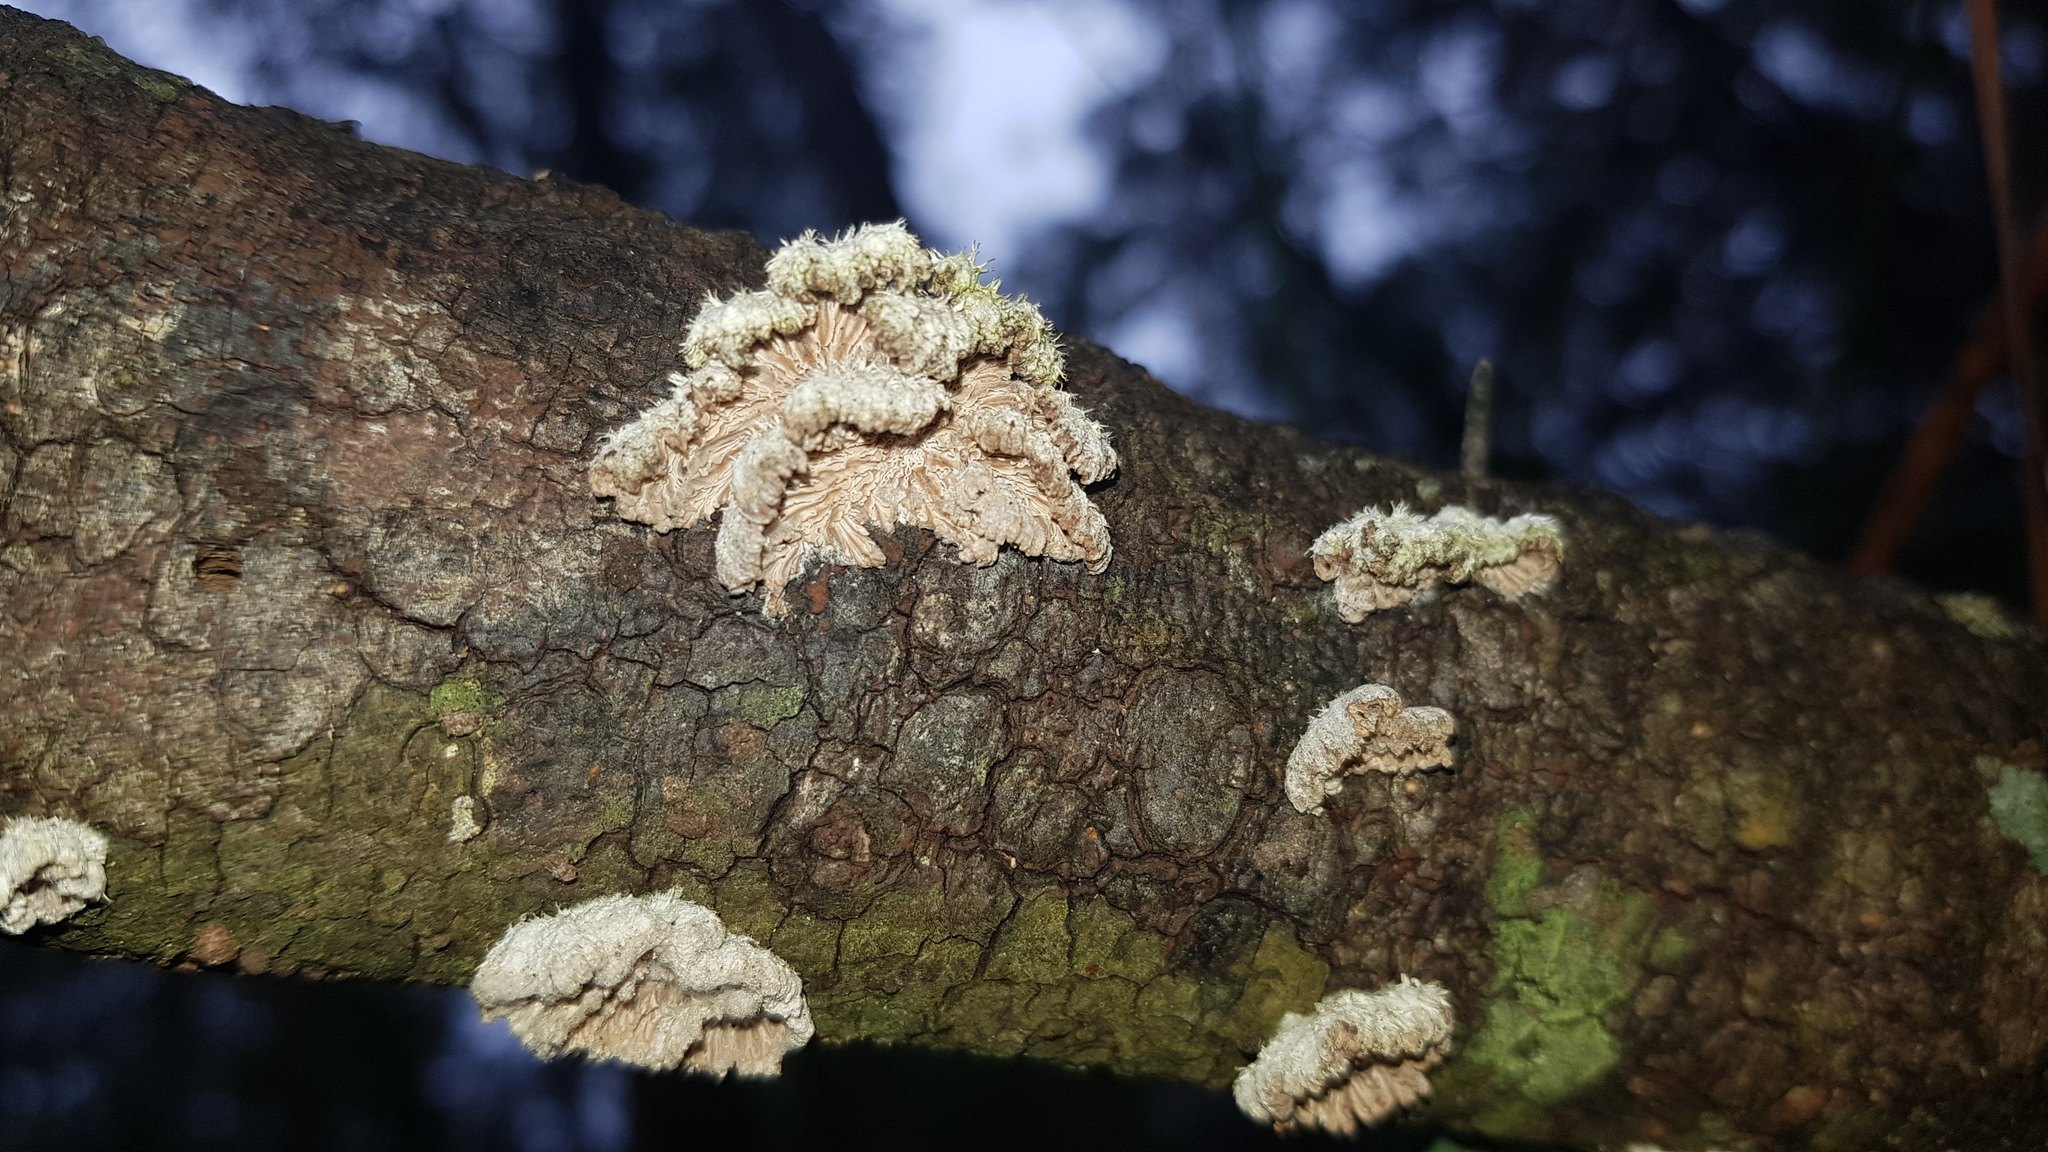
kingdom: Fungi
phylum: Basidiomycota
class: Agaricomycetes
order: Agaricales
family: Schizophyllaceae
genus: Schizophyllum
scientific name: Schizophyllum commune
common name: Common porecrust
